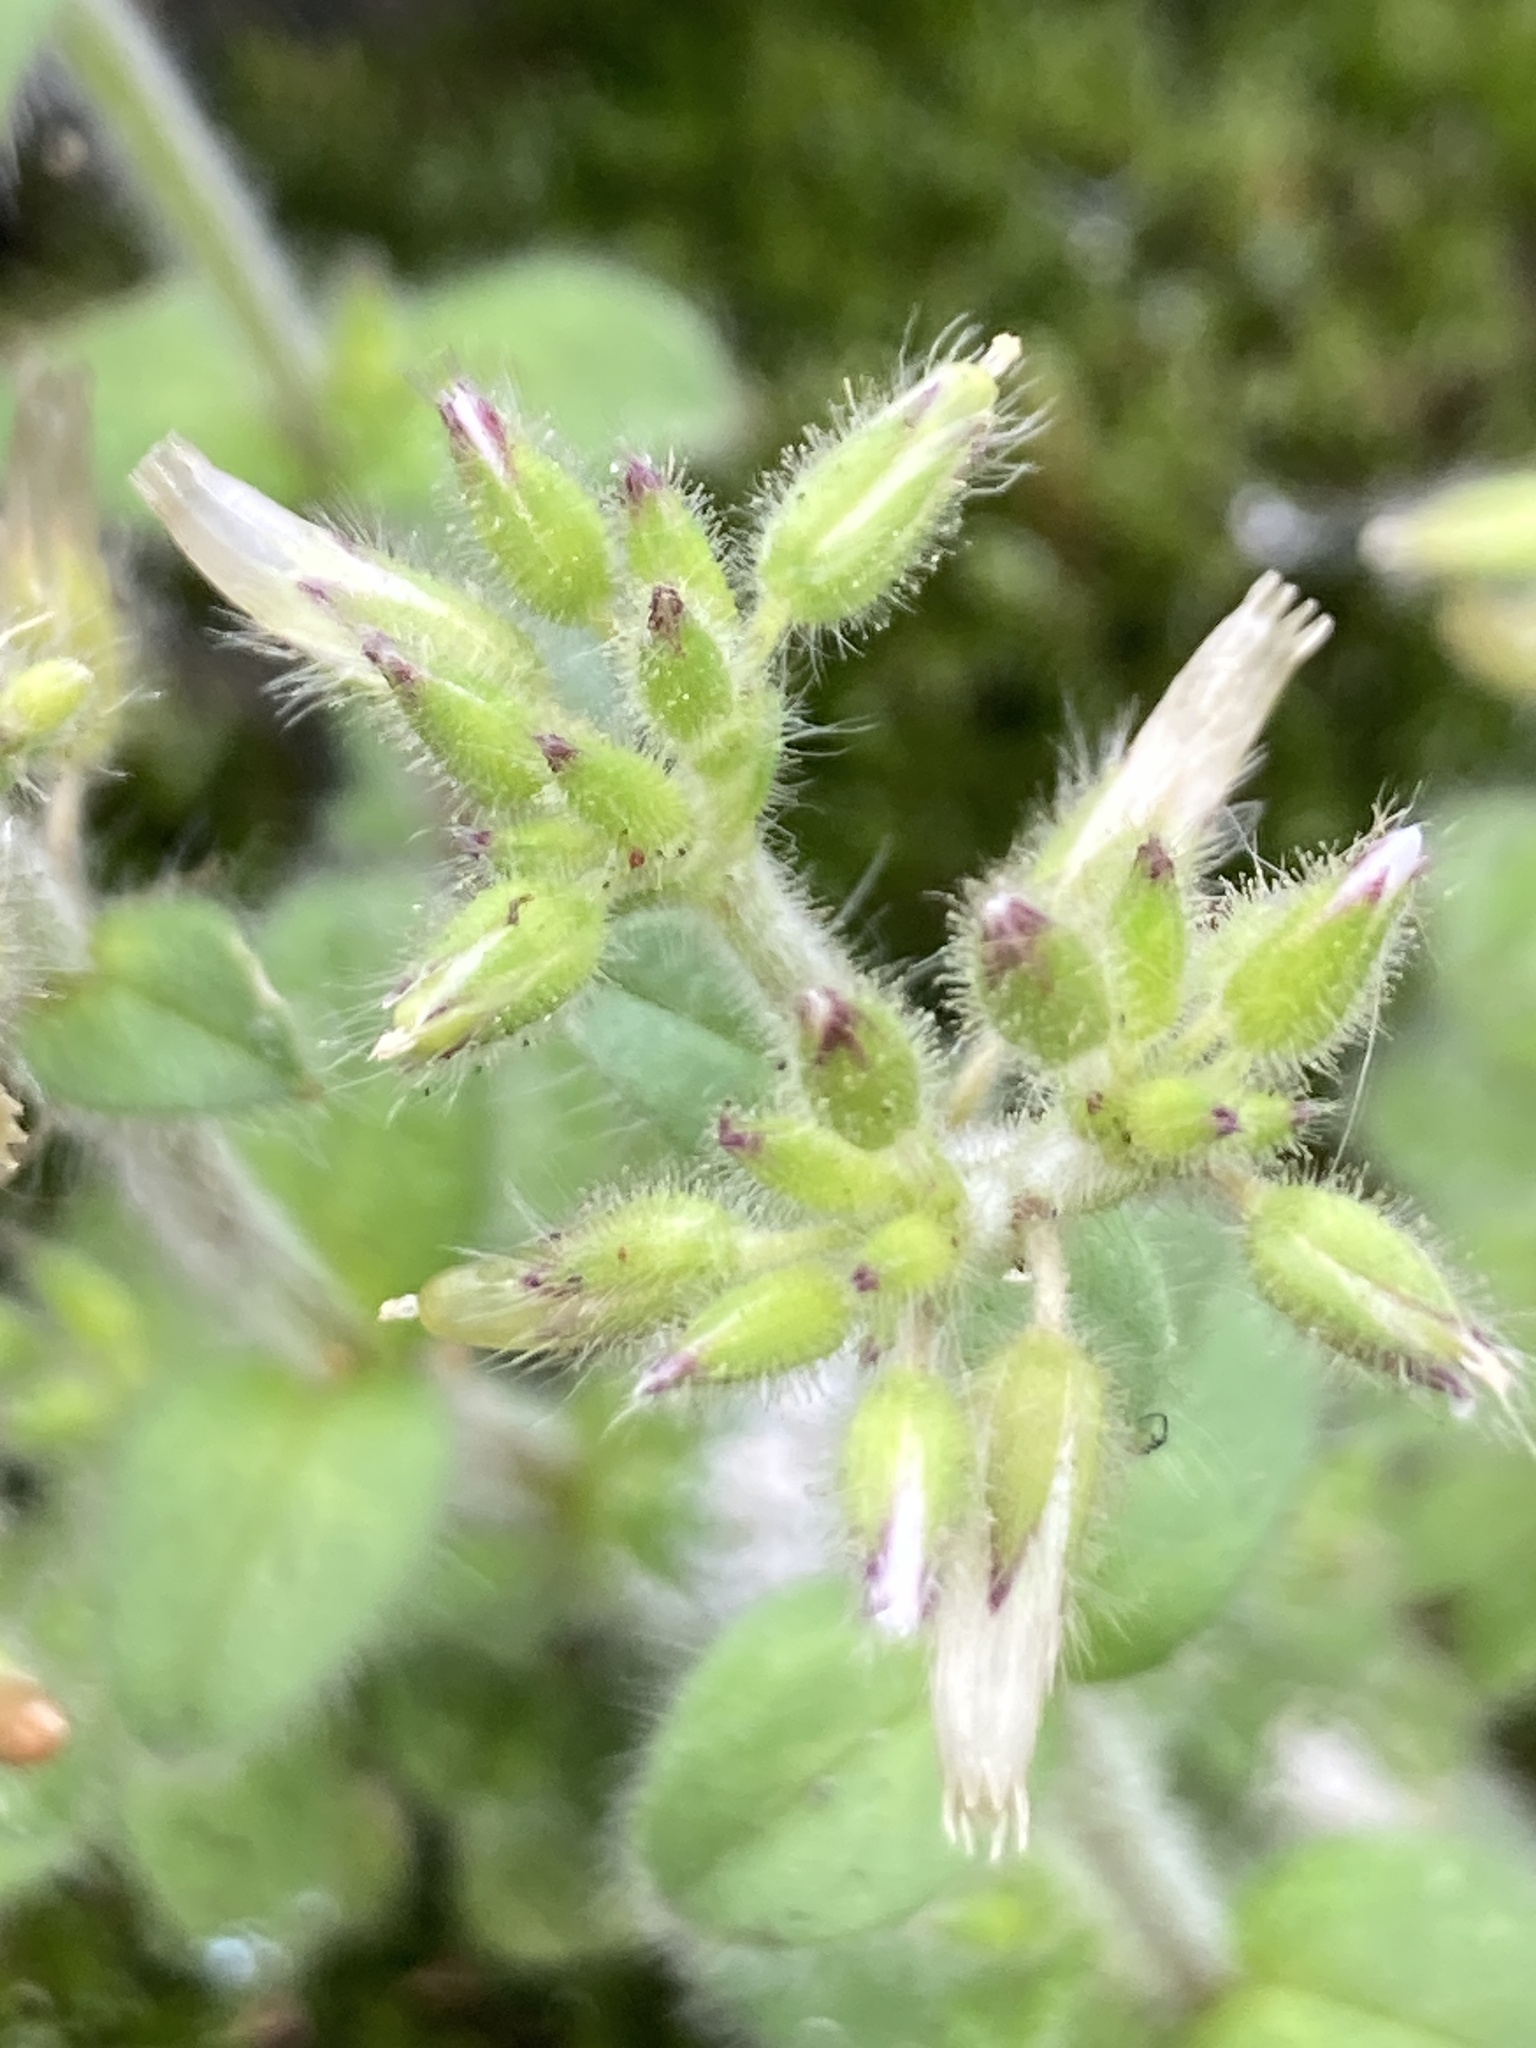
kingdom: Plantae
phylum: Tracheophyta
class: Magnoliopsida
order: Caryophyllales
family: Caryophyllaceae
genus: Cerastium
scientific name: Cerastium glomeratum
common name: Sticky chickweed
